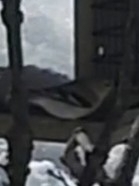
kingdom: Animalia
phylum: Chordata
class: Aves
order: Passeriformes
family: Fringillidae
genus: Spinus
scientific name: Spinus tristis
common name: American goldfinch
